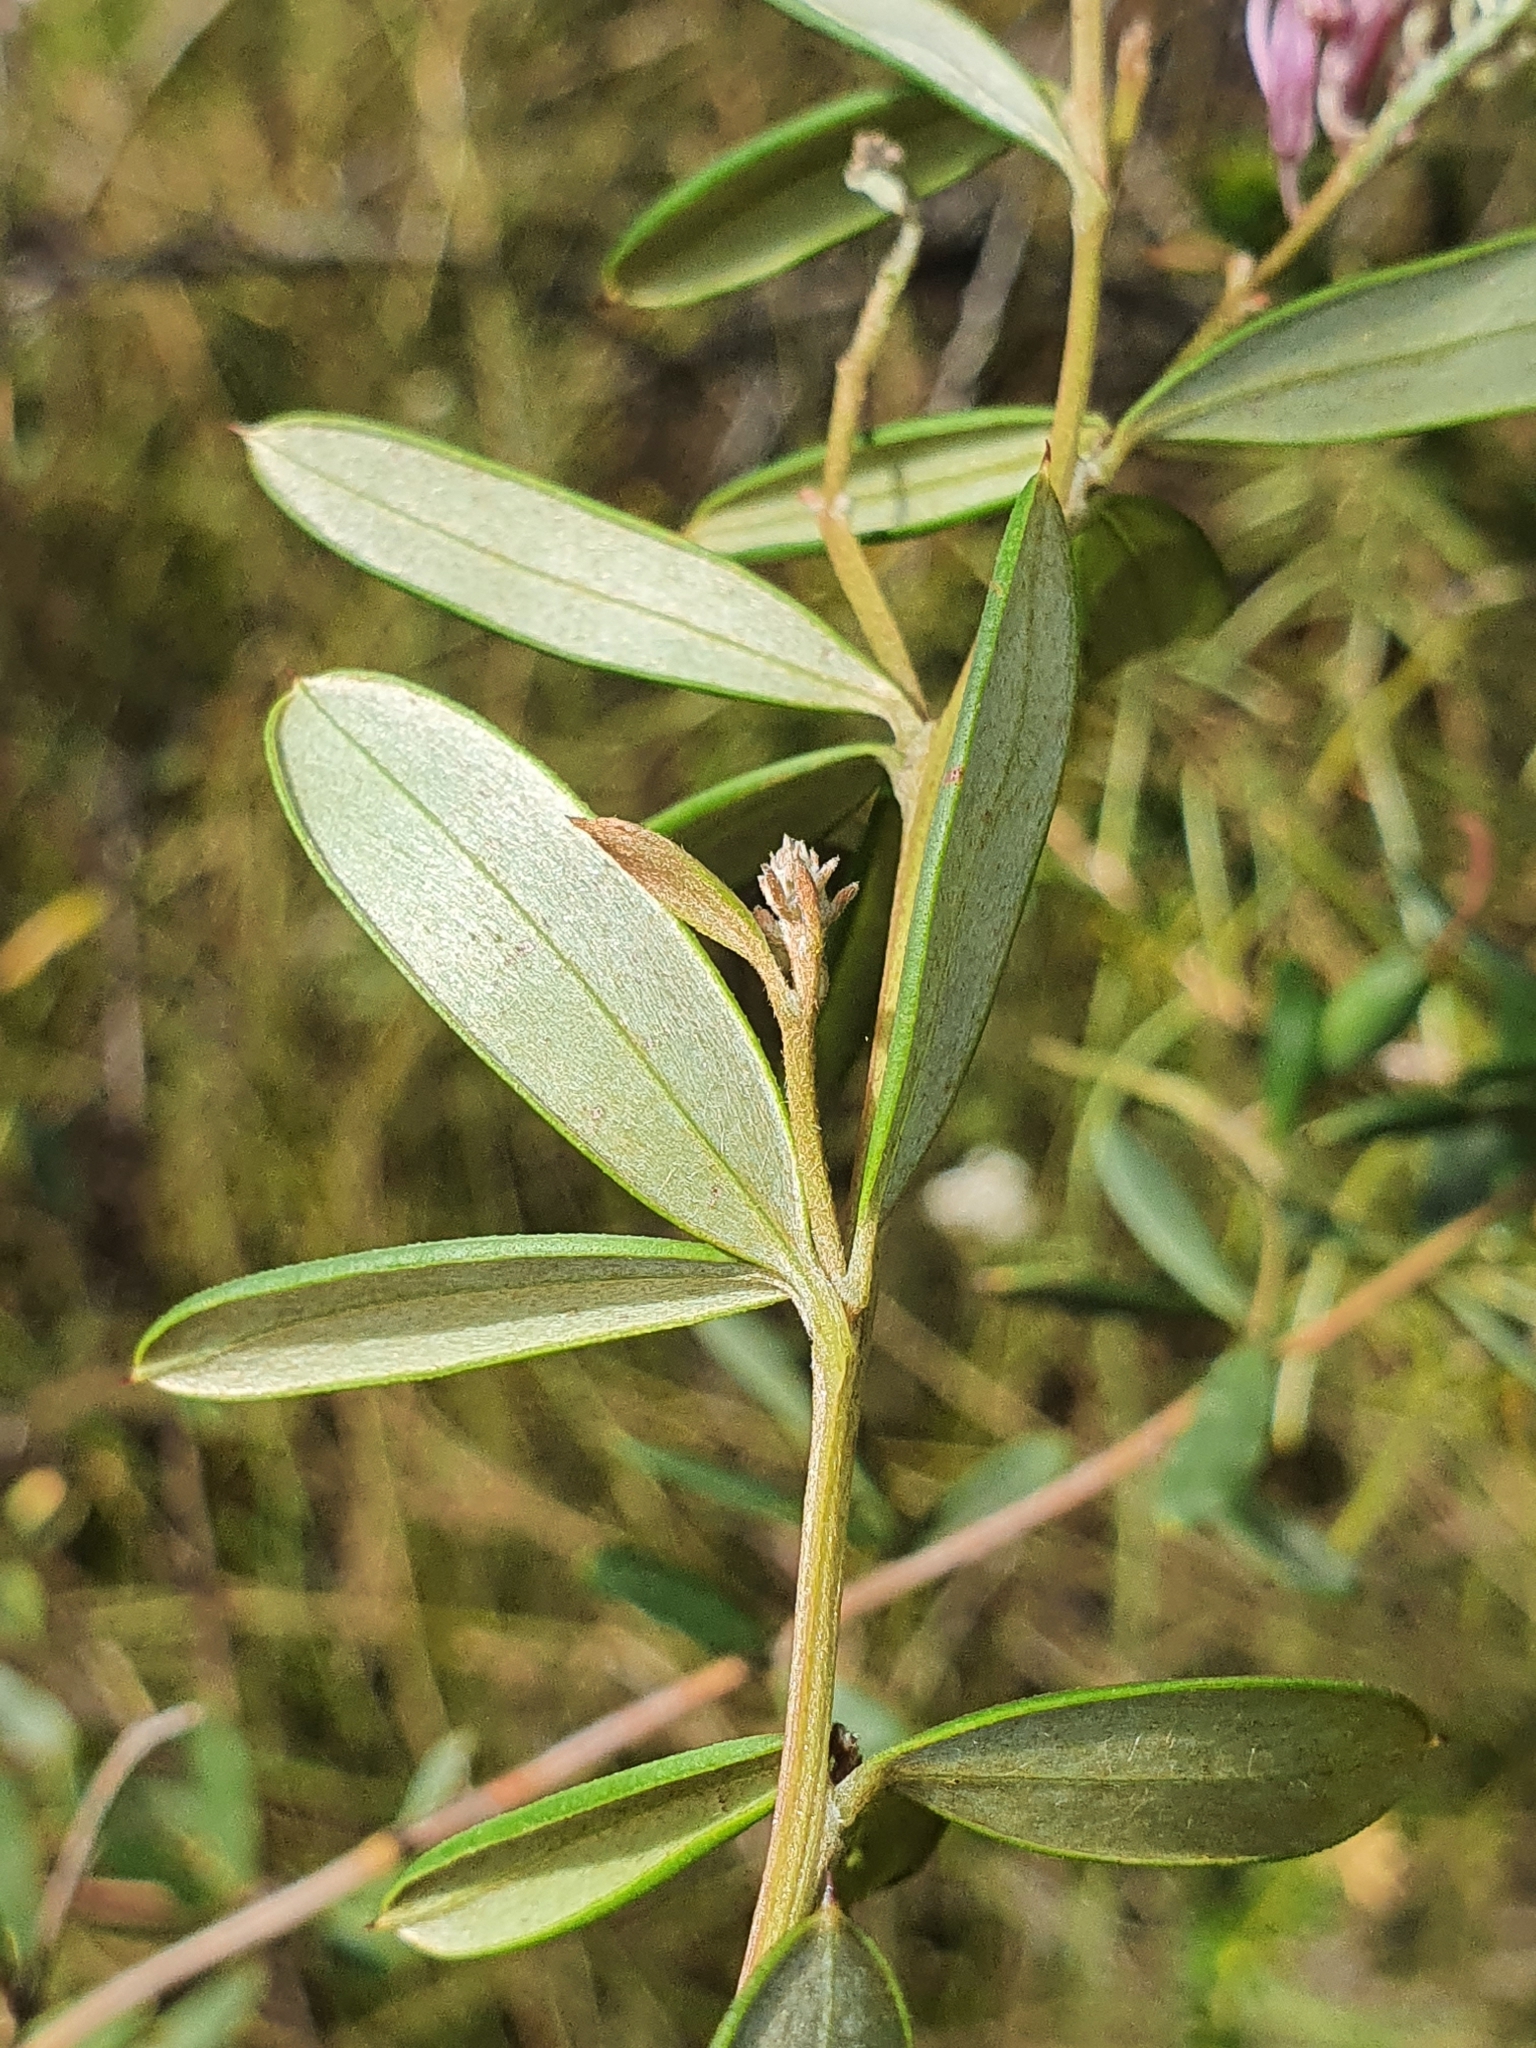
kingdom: Plantae
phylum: Tracheophyta
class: Magnoliopsida
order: Proteales
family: Proteaceae
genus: Grevillea
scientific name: Grevillea sericea
